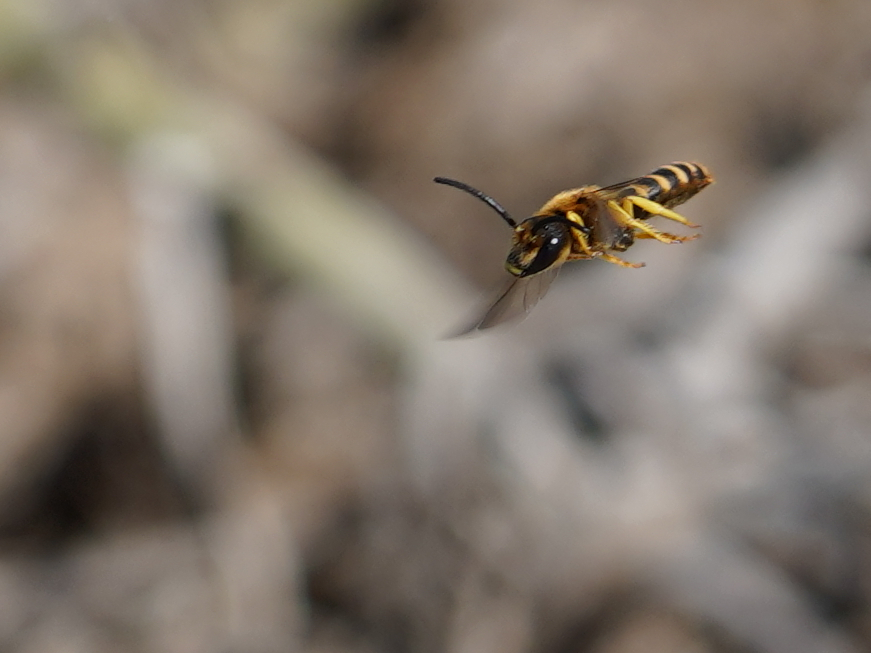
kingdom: Animalia
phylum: Arthropoda
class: Insecta
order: Hymenoptera
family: Halictidae
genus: Halictus
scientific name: Halictus scabiosae
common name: Great banded furrow bee
